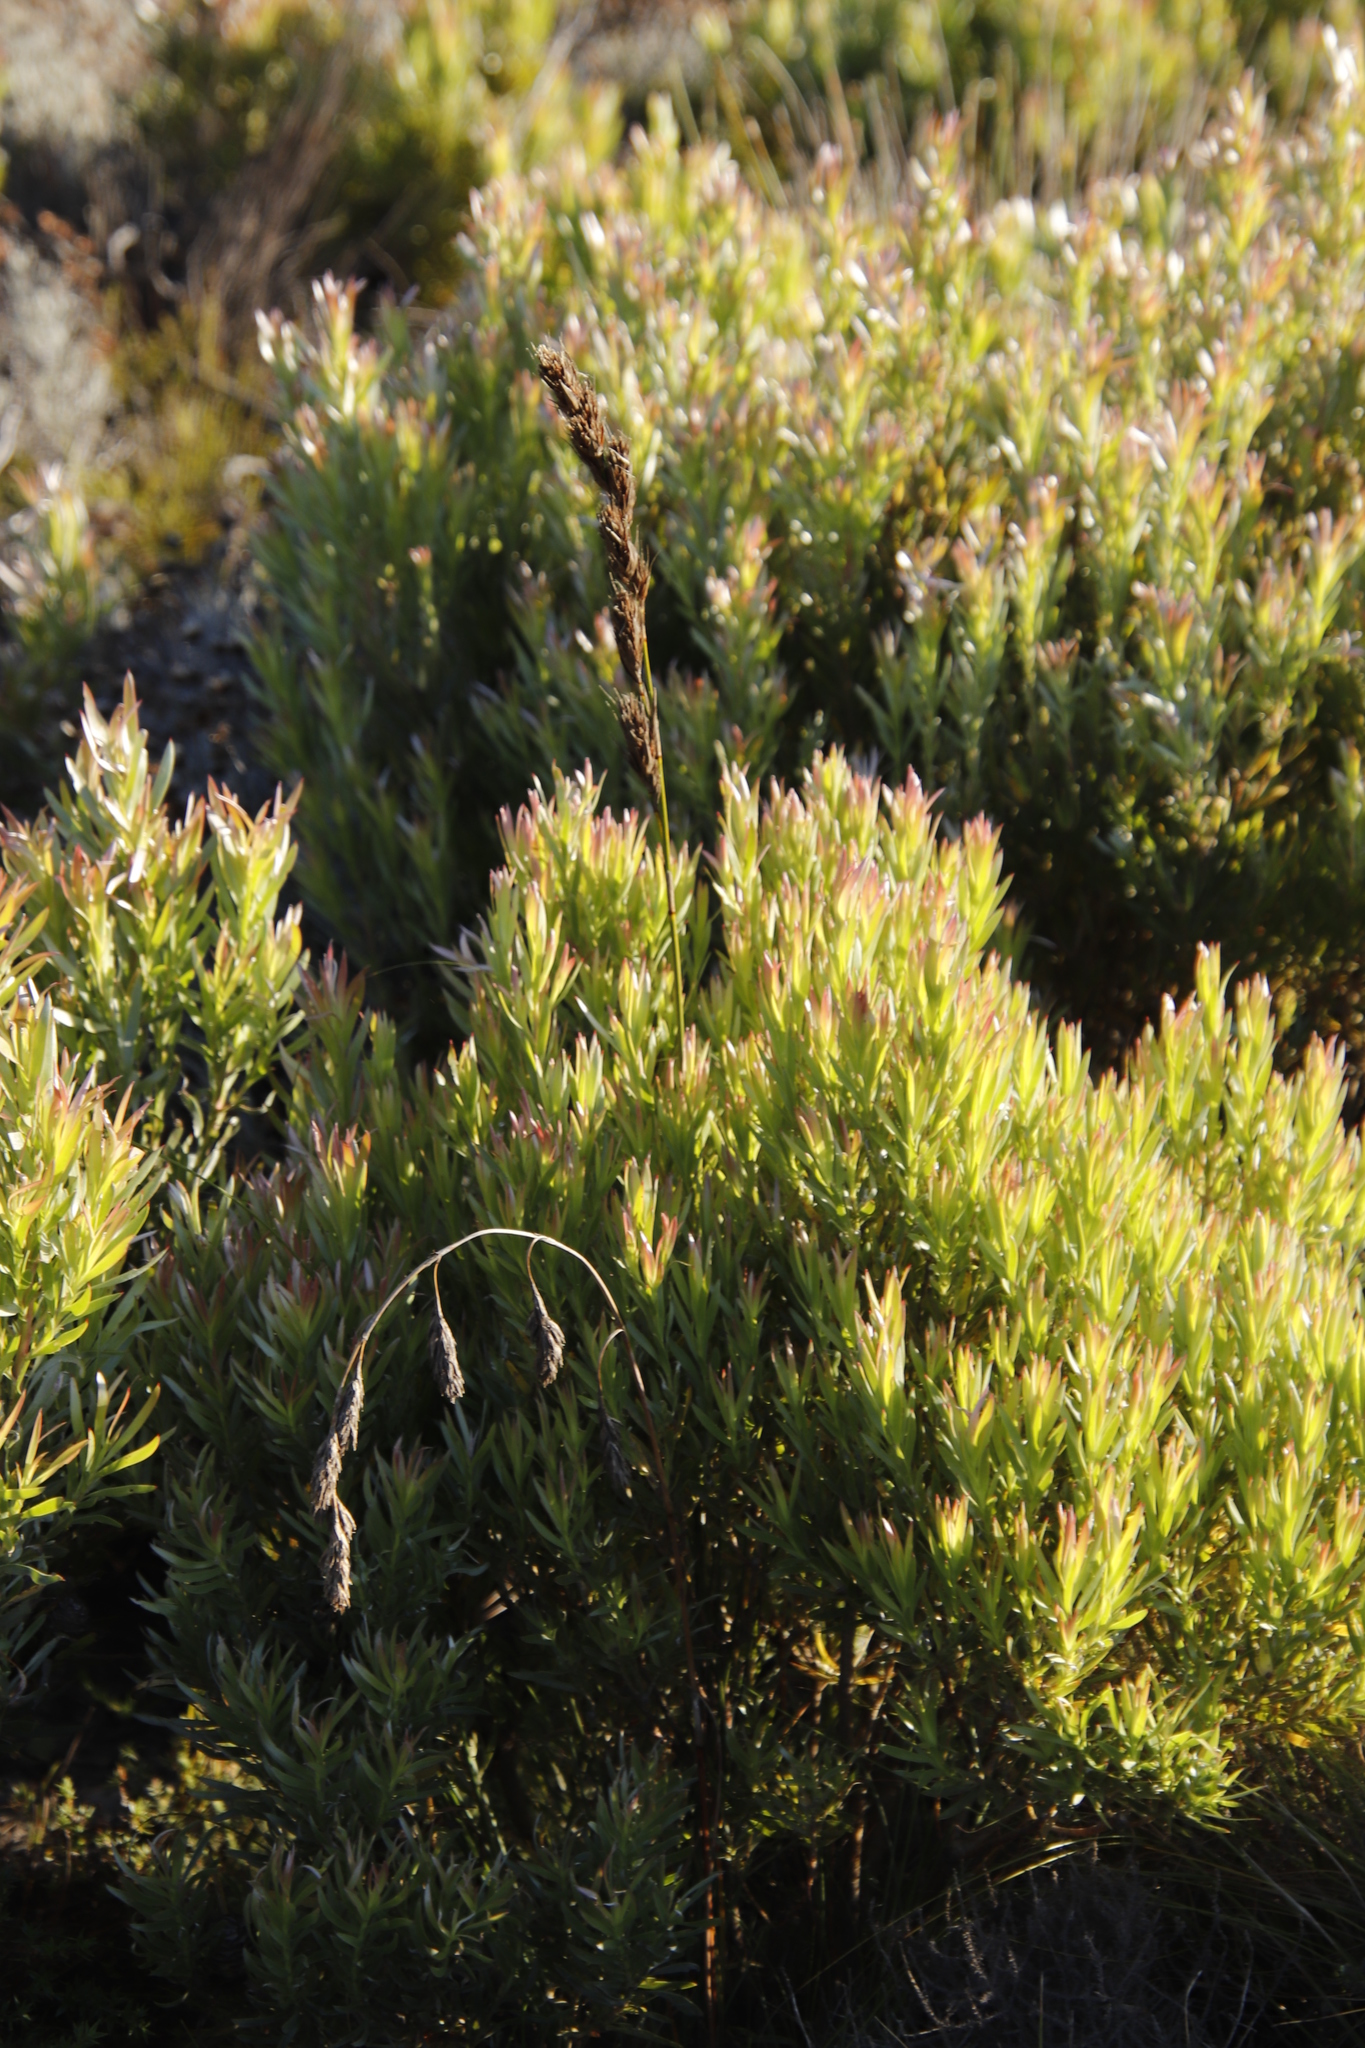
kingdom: Plantae
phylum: Tracheophyta
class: Liliopsida
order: Poales
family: Cyperaceae
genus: Tetraria
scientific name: Tetraria bromoides
